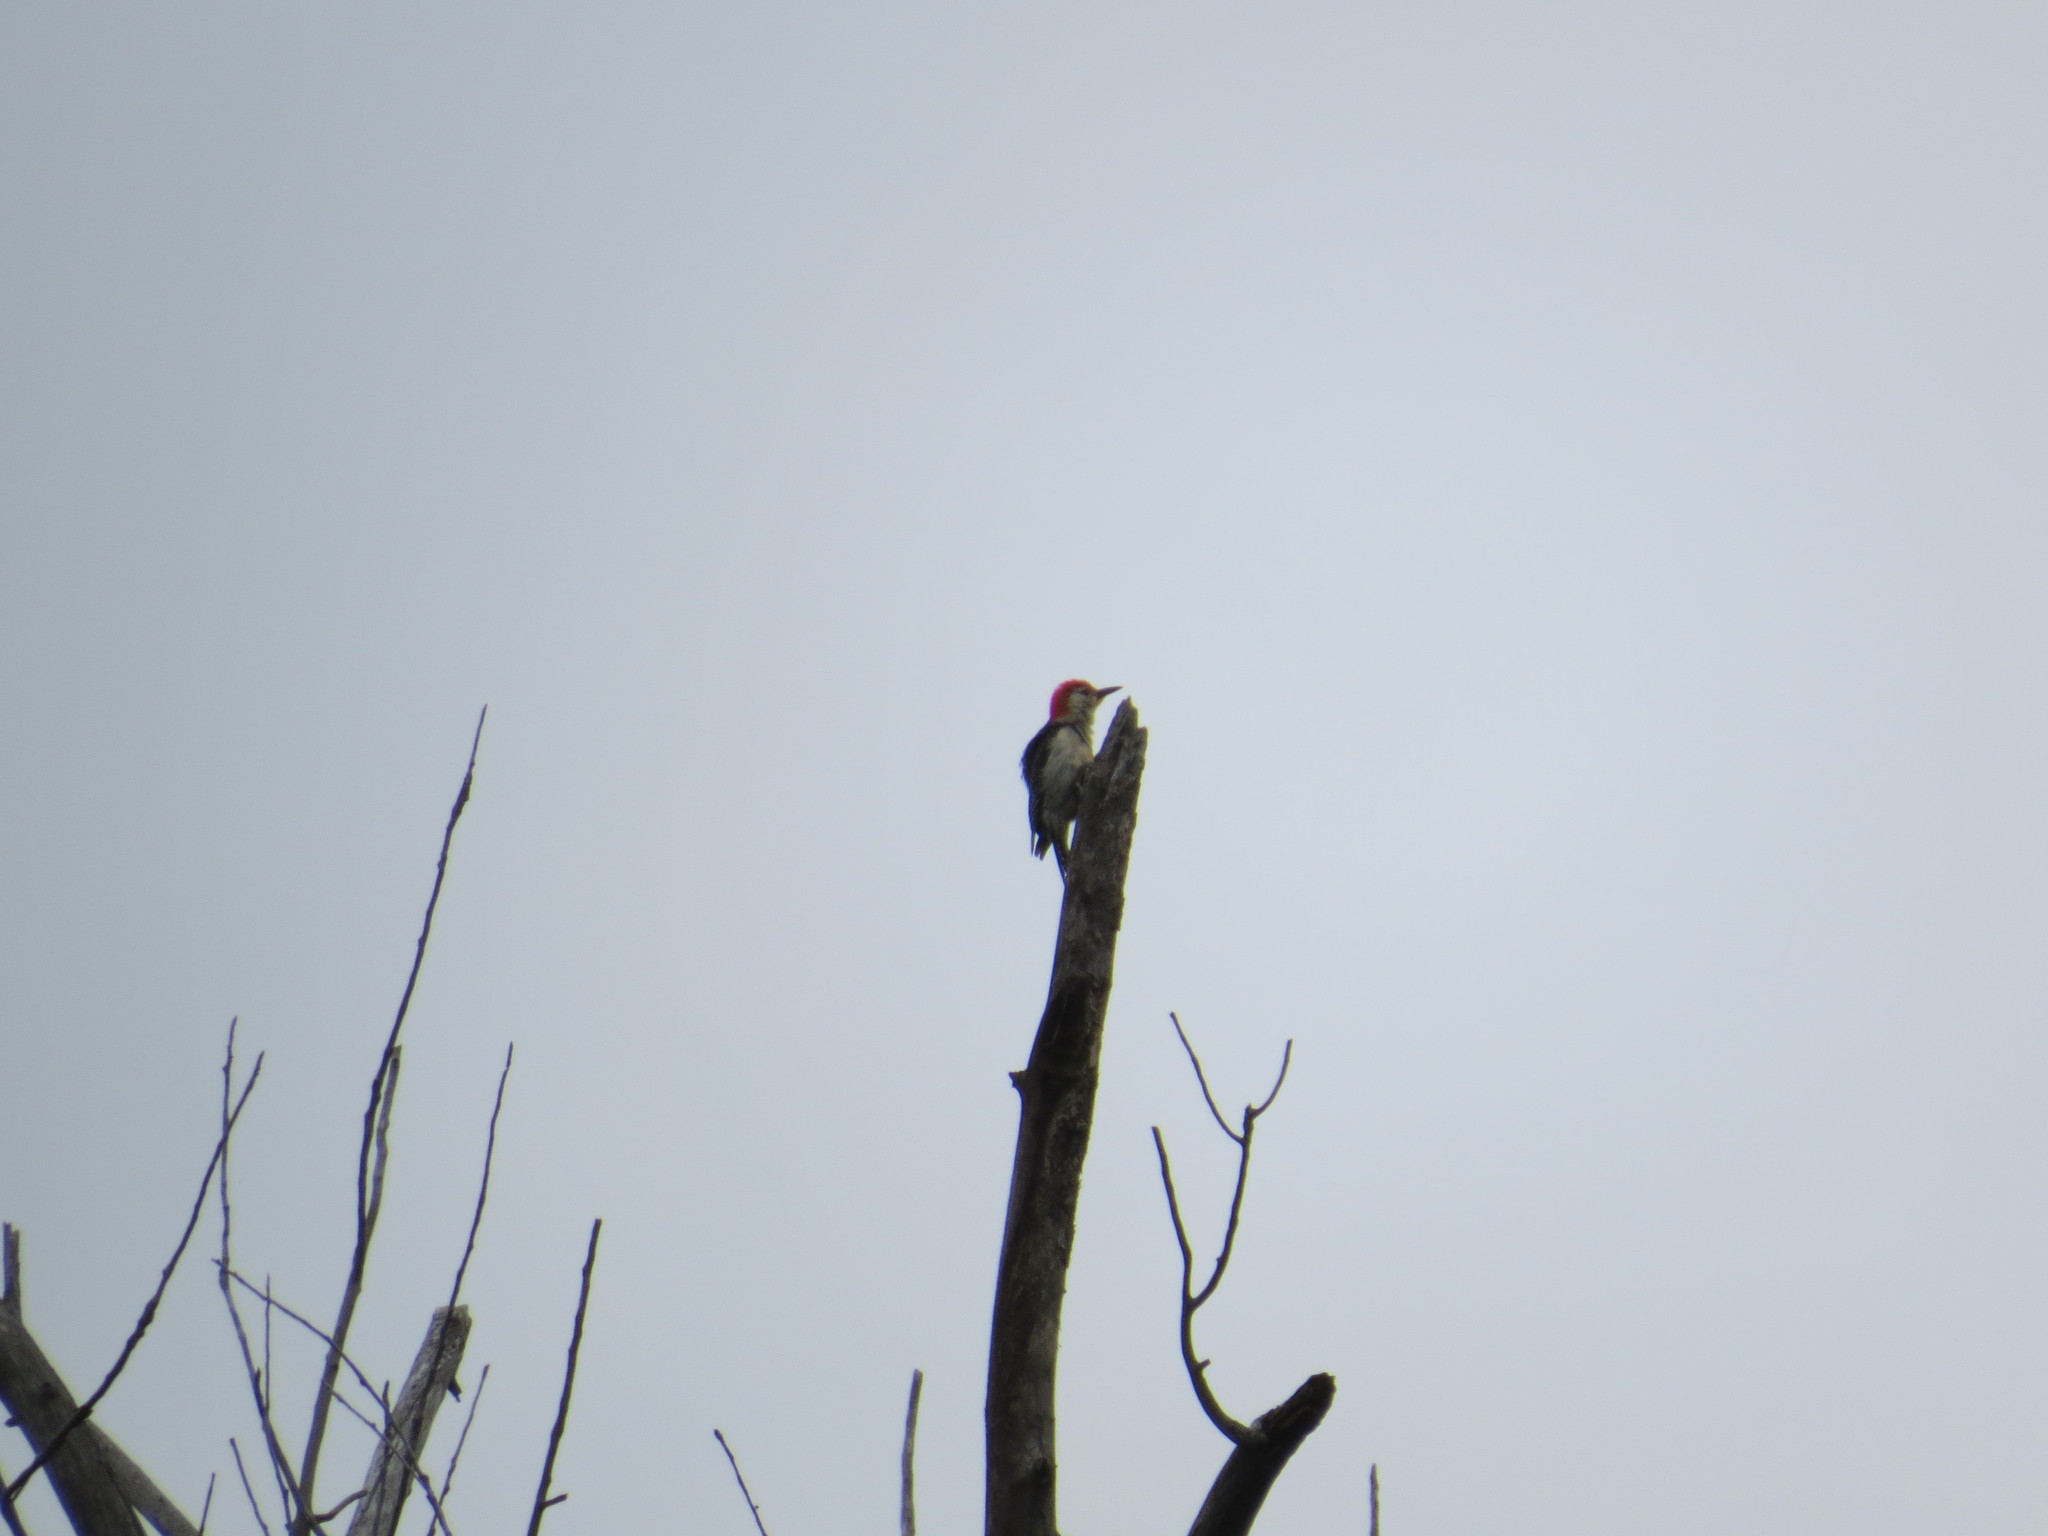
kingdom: Animalia
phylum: Chordata
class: Aves
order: Piciformes
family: Picidae
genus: Melanerpes
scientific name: Melanerpes carolinus
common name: Red-bellied woodpecker
